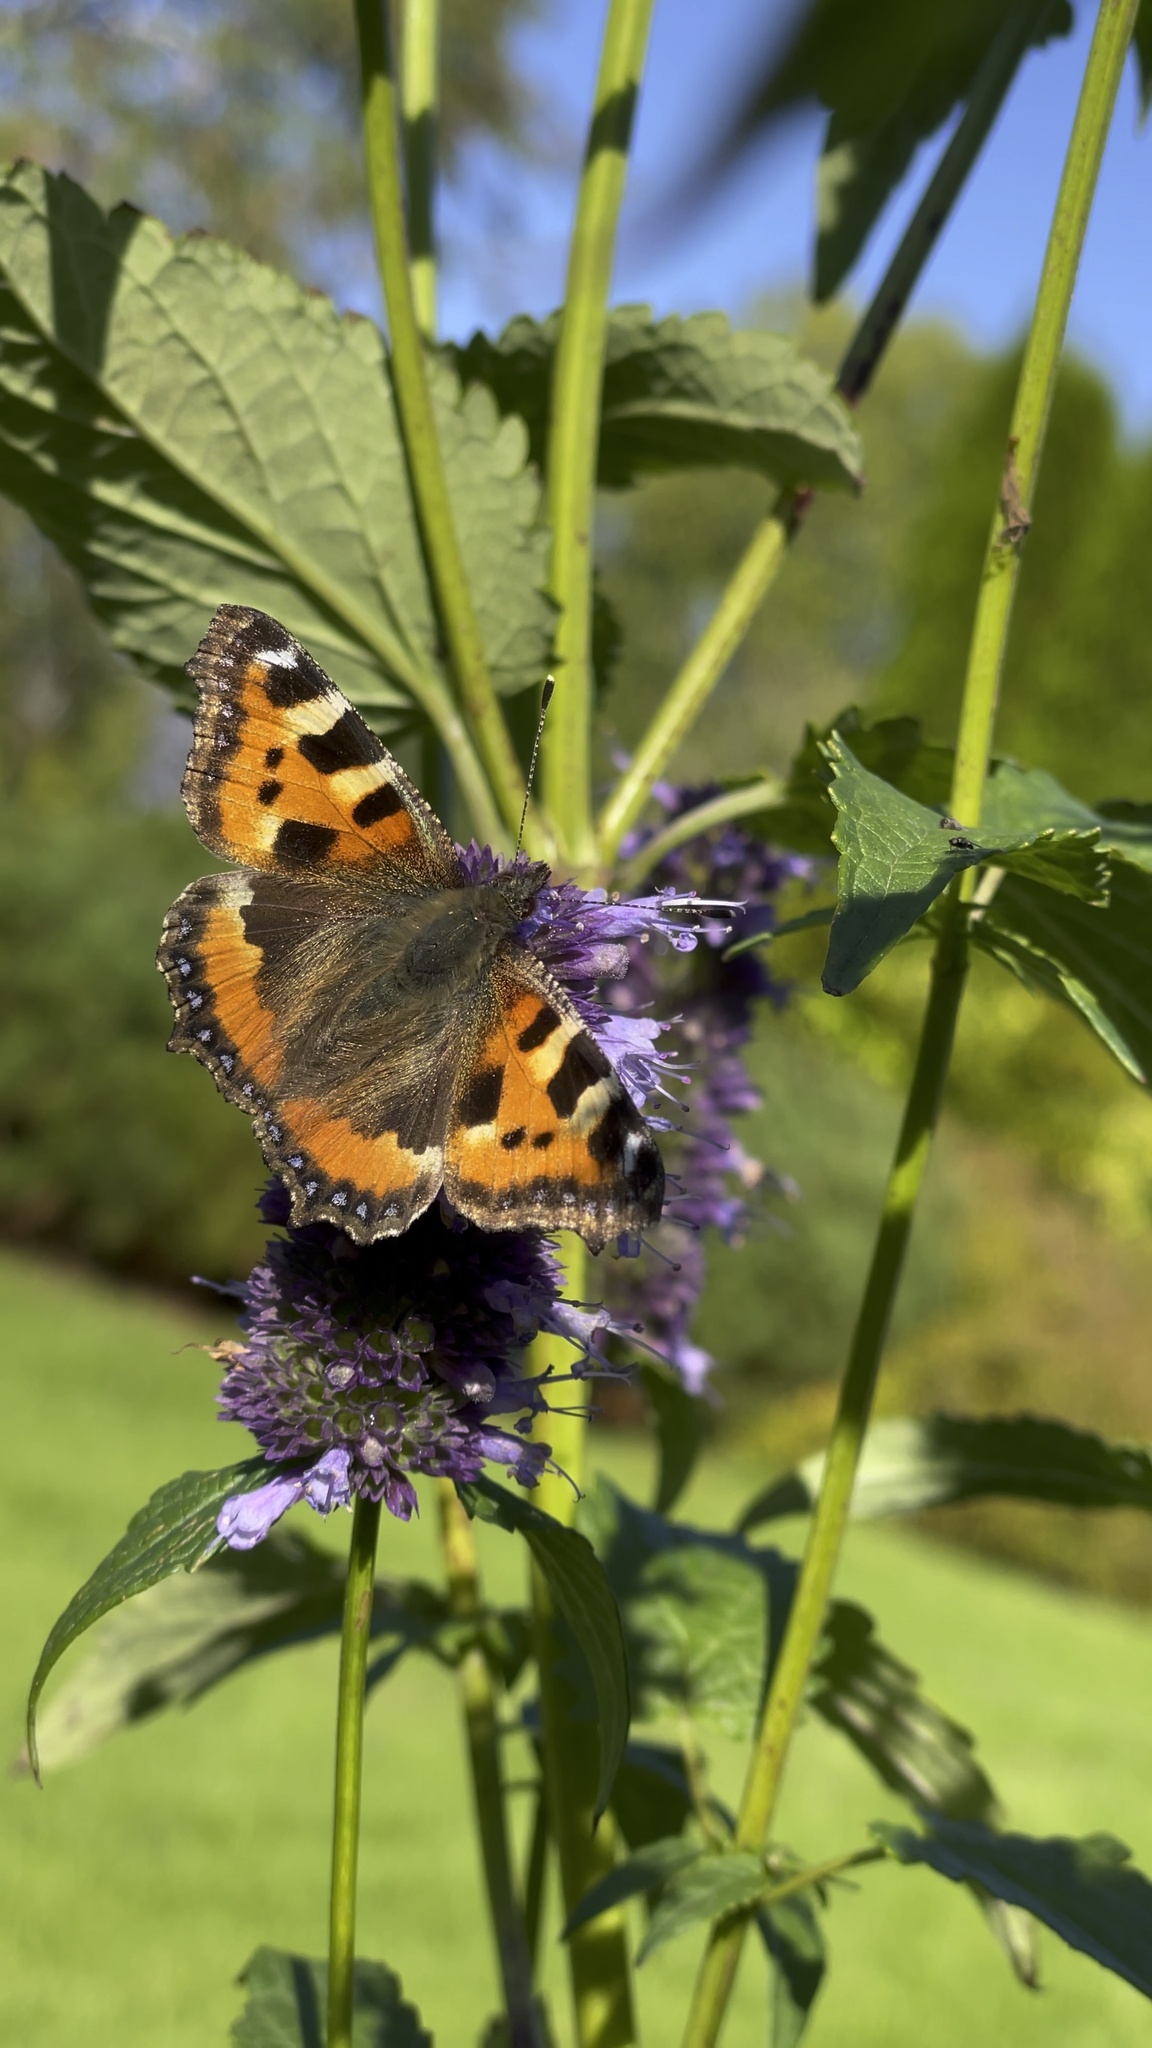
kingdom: Animalia
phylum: Arthropoda
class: Insecta
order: Lepidoptera
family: Nymphalidae
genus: Aglais
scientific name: Aglais urticae
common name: Small tortoiseshell
